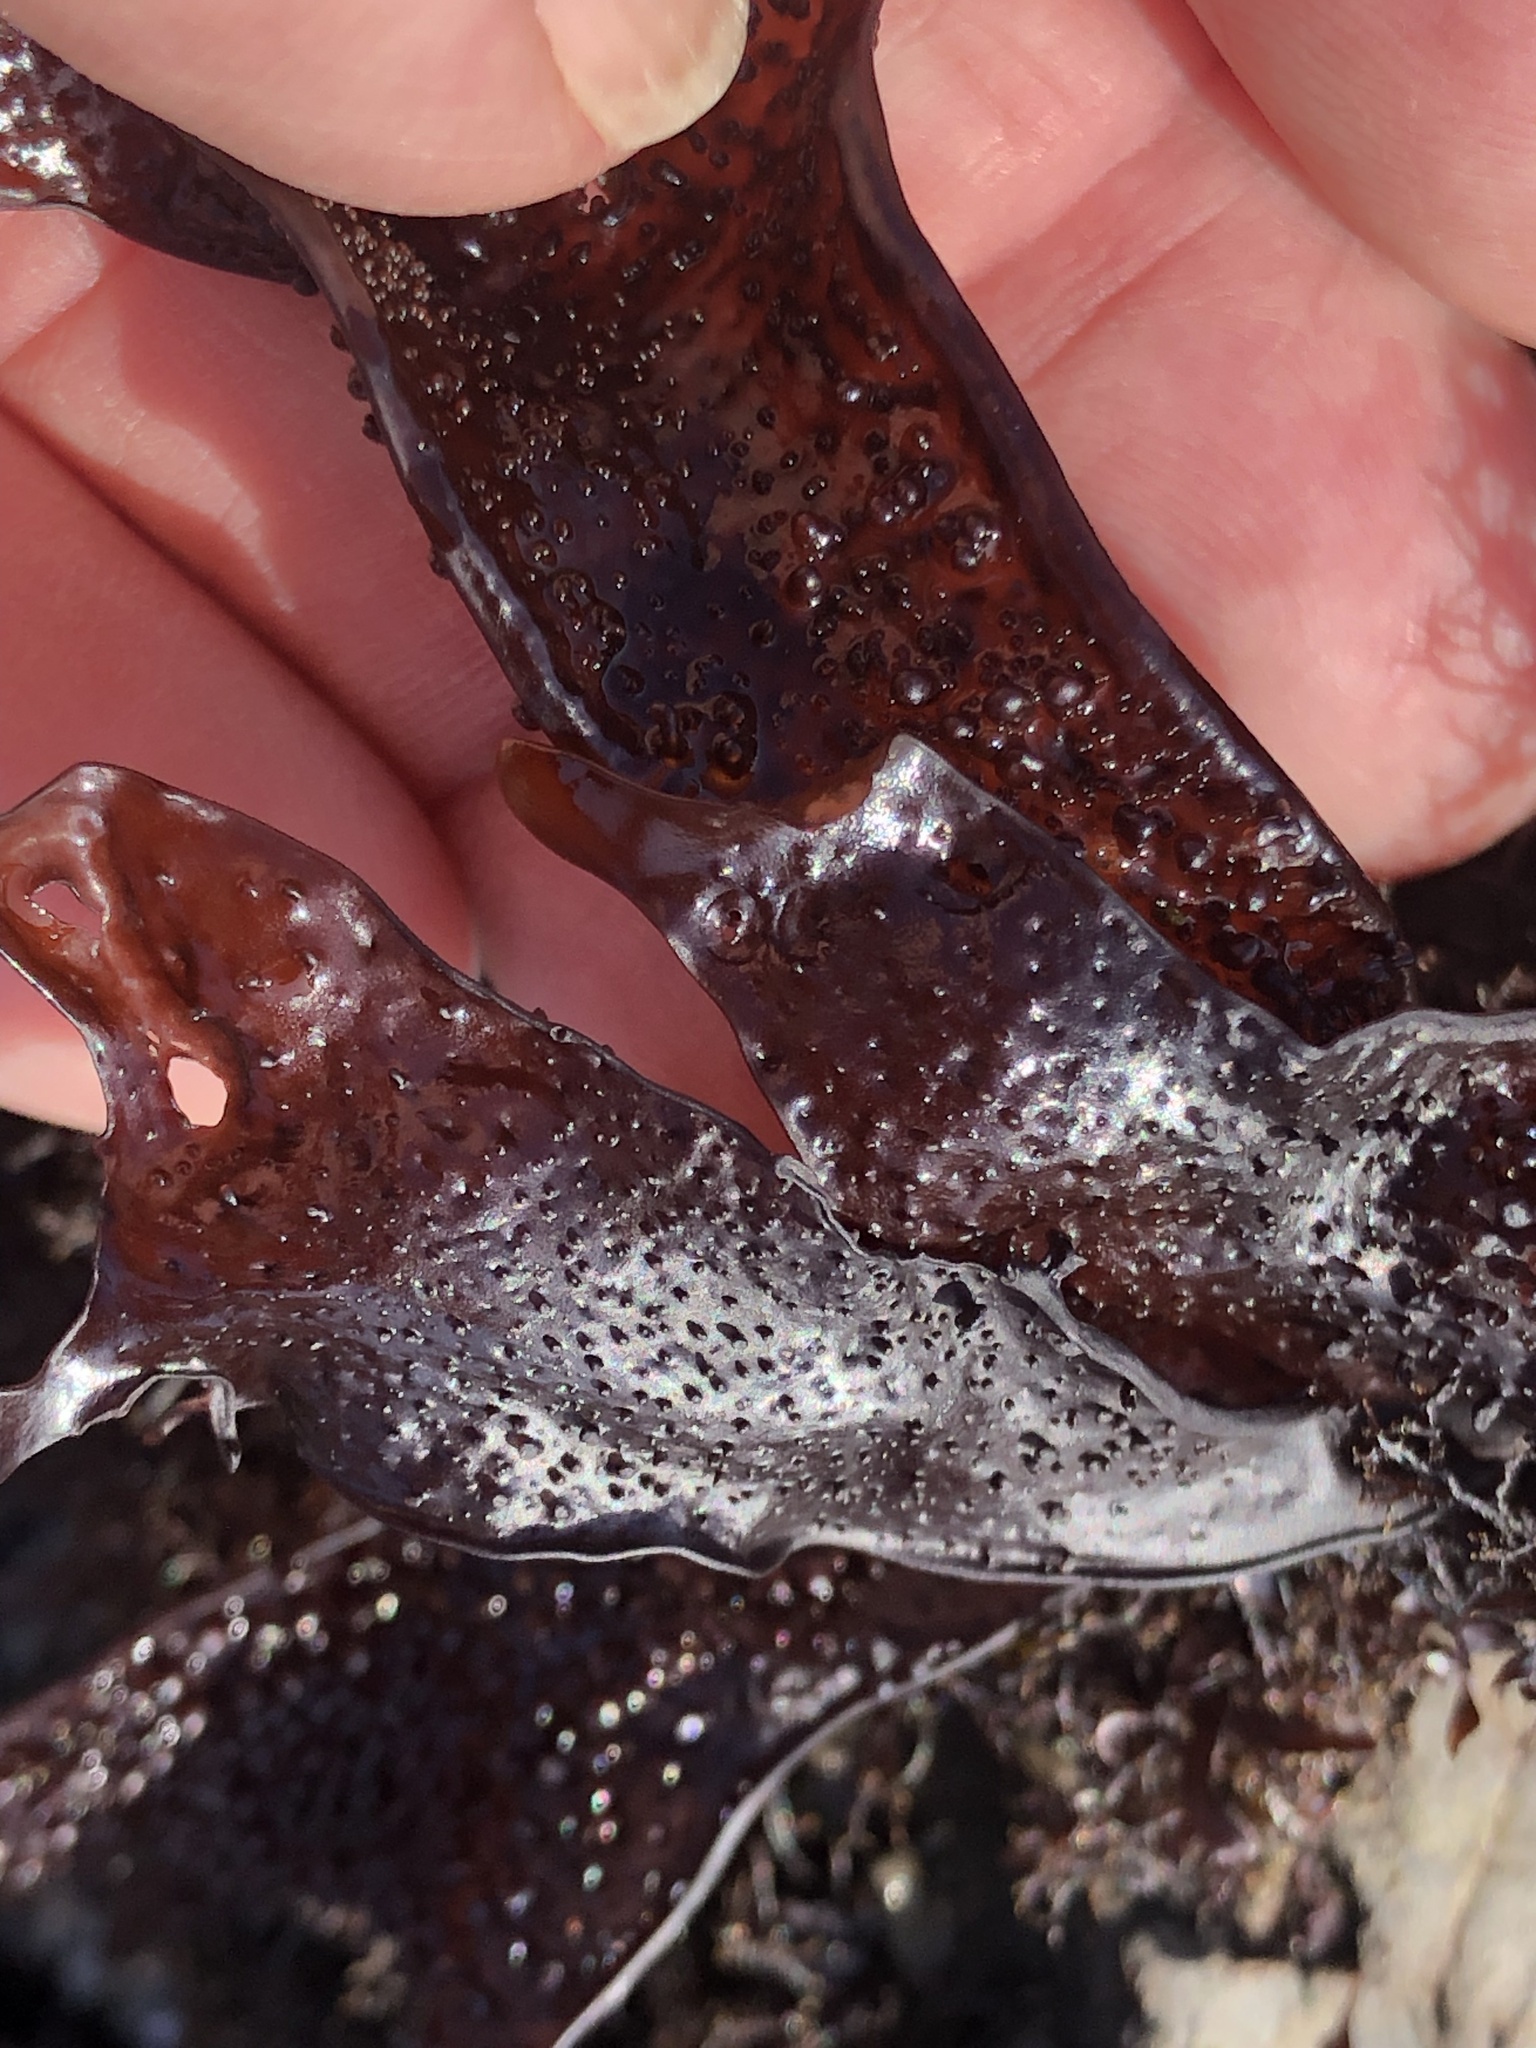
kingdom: Plantae
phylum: Rhodophyta
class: Florideophyceae
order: Gigartinales
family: Phyllophoraceae
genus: Mastocarpus
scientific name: Mastocarpus papillatus
